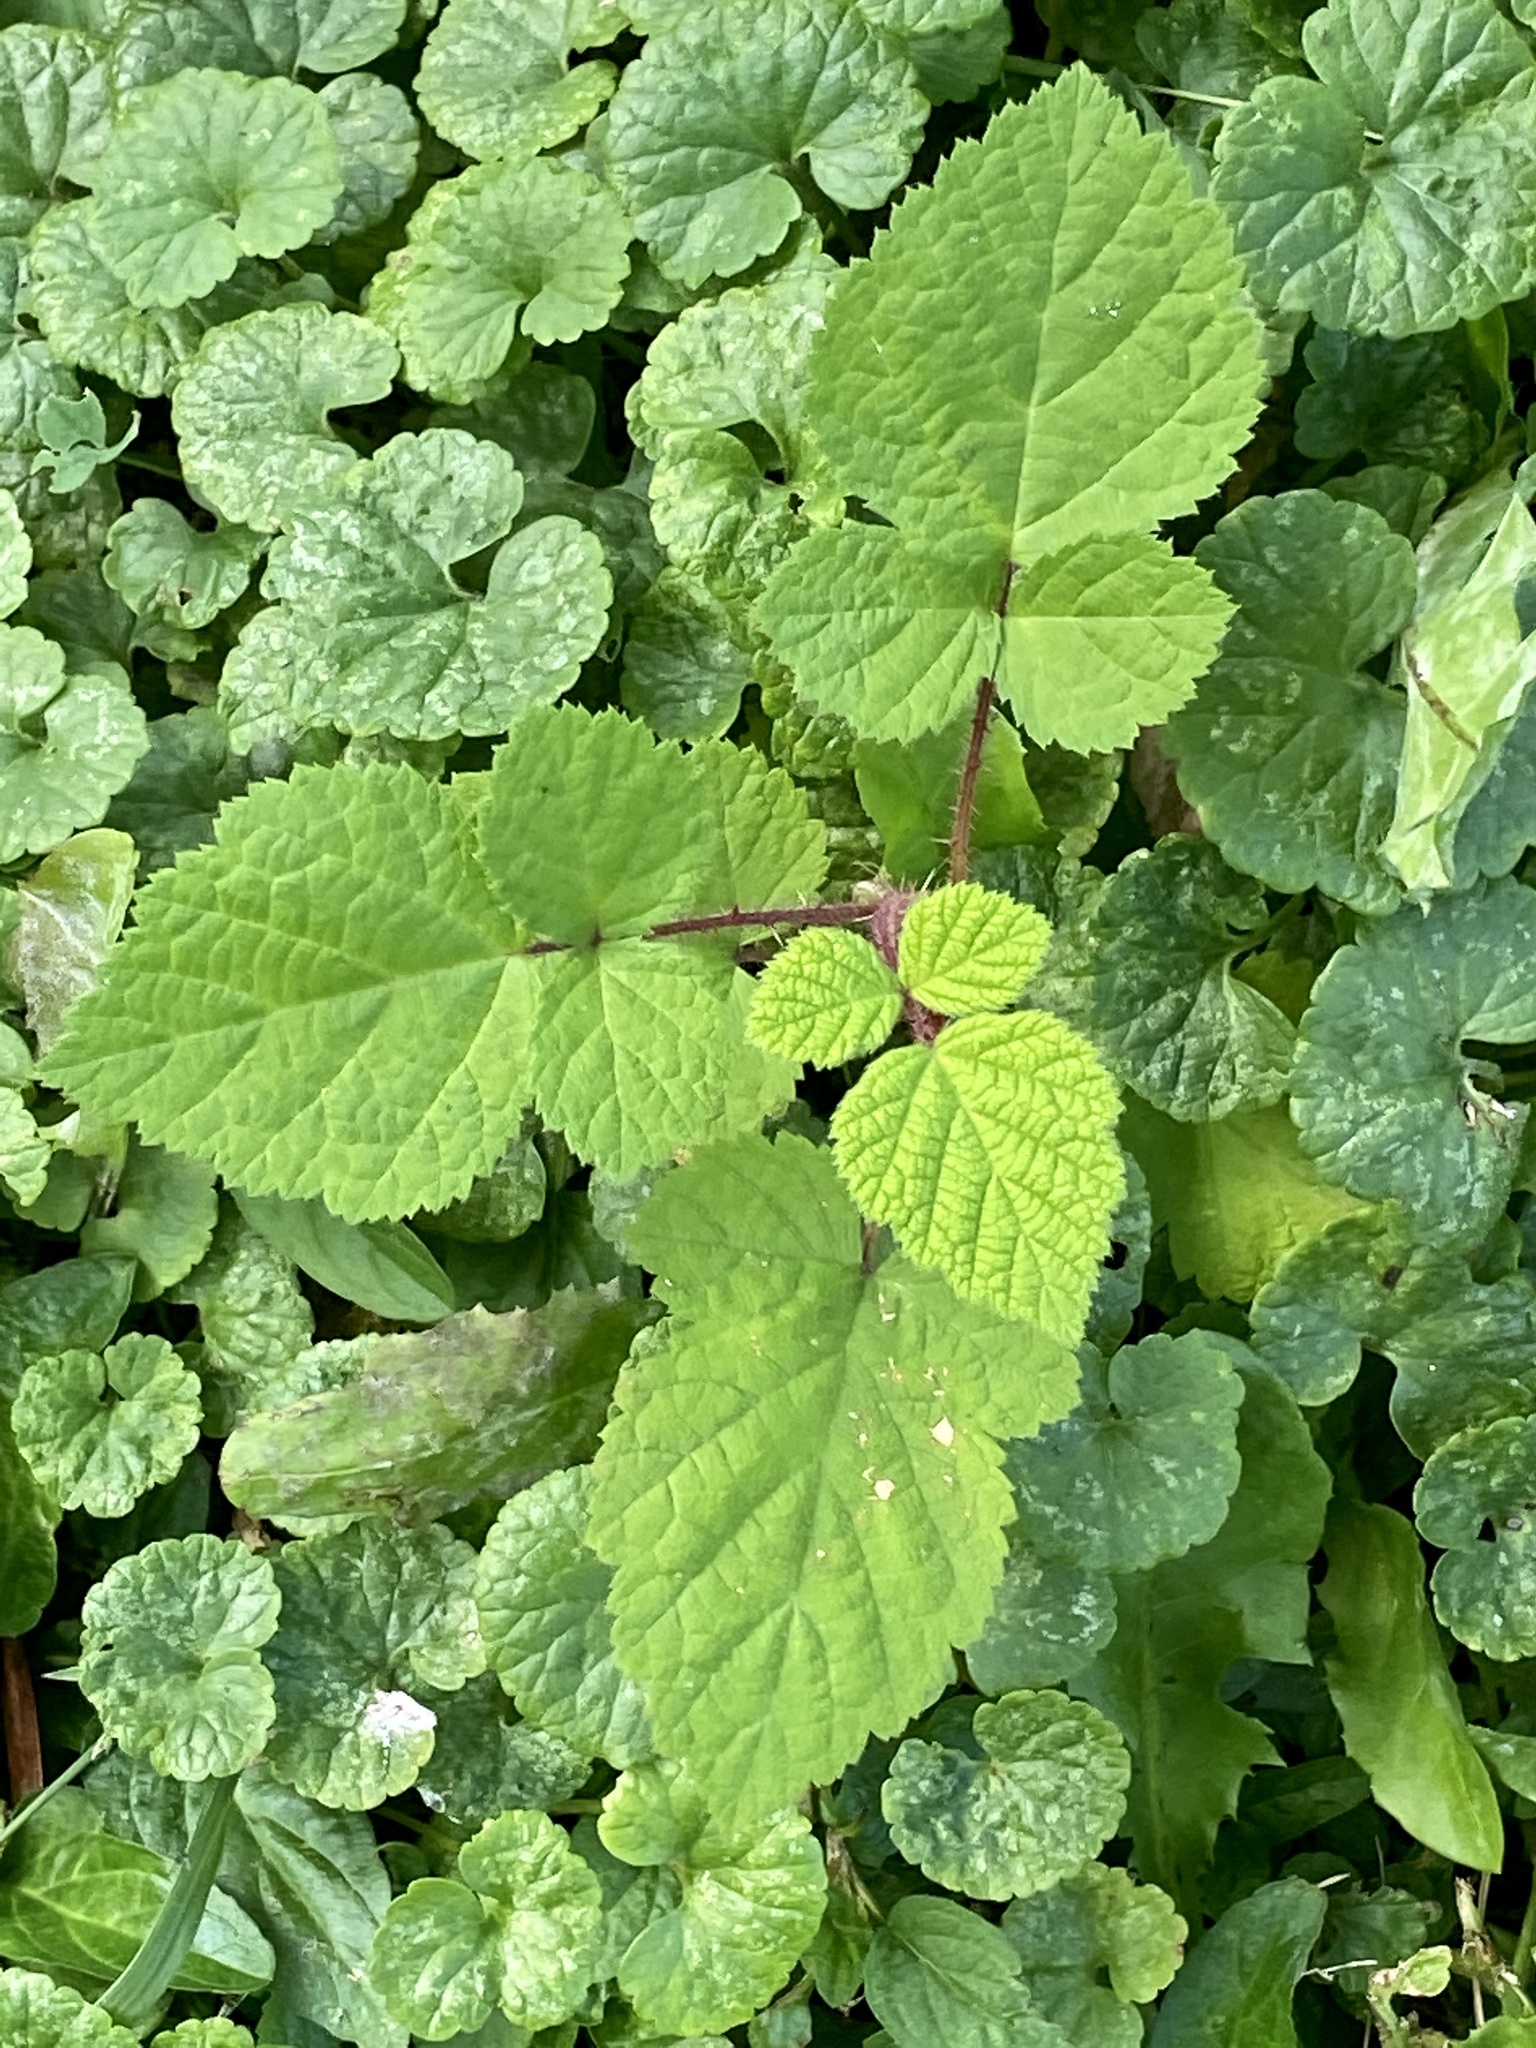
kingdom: Plantae
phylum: Tracheophyta
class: Magnoliopsida
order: Rosales
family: Rosaceae
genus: Rubus
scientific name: Rubus phoenicolasius
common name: Japanese wineberry
